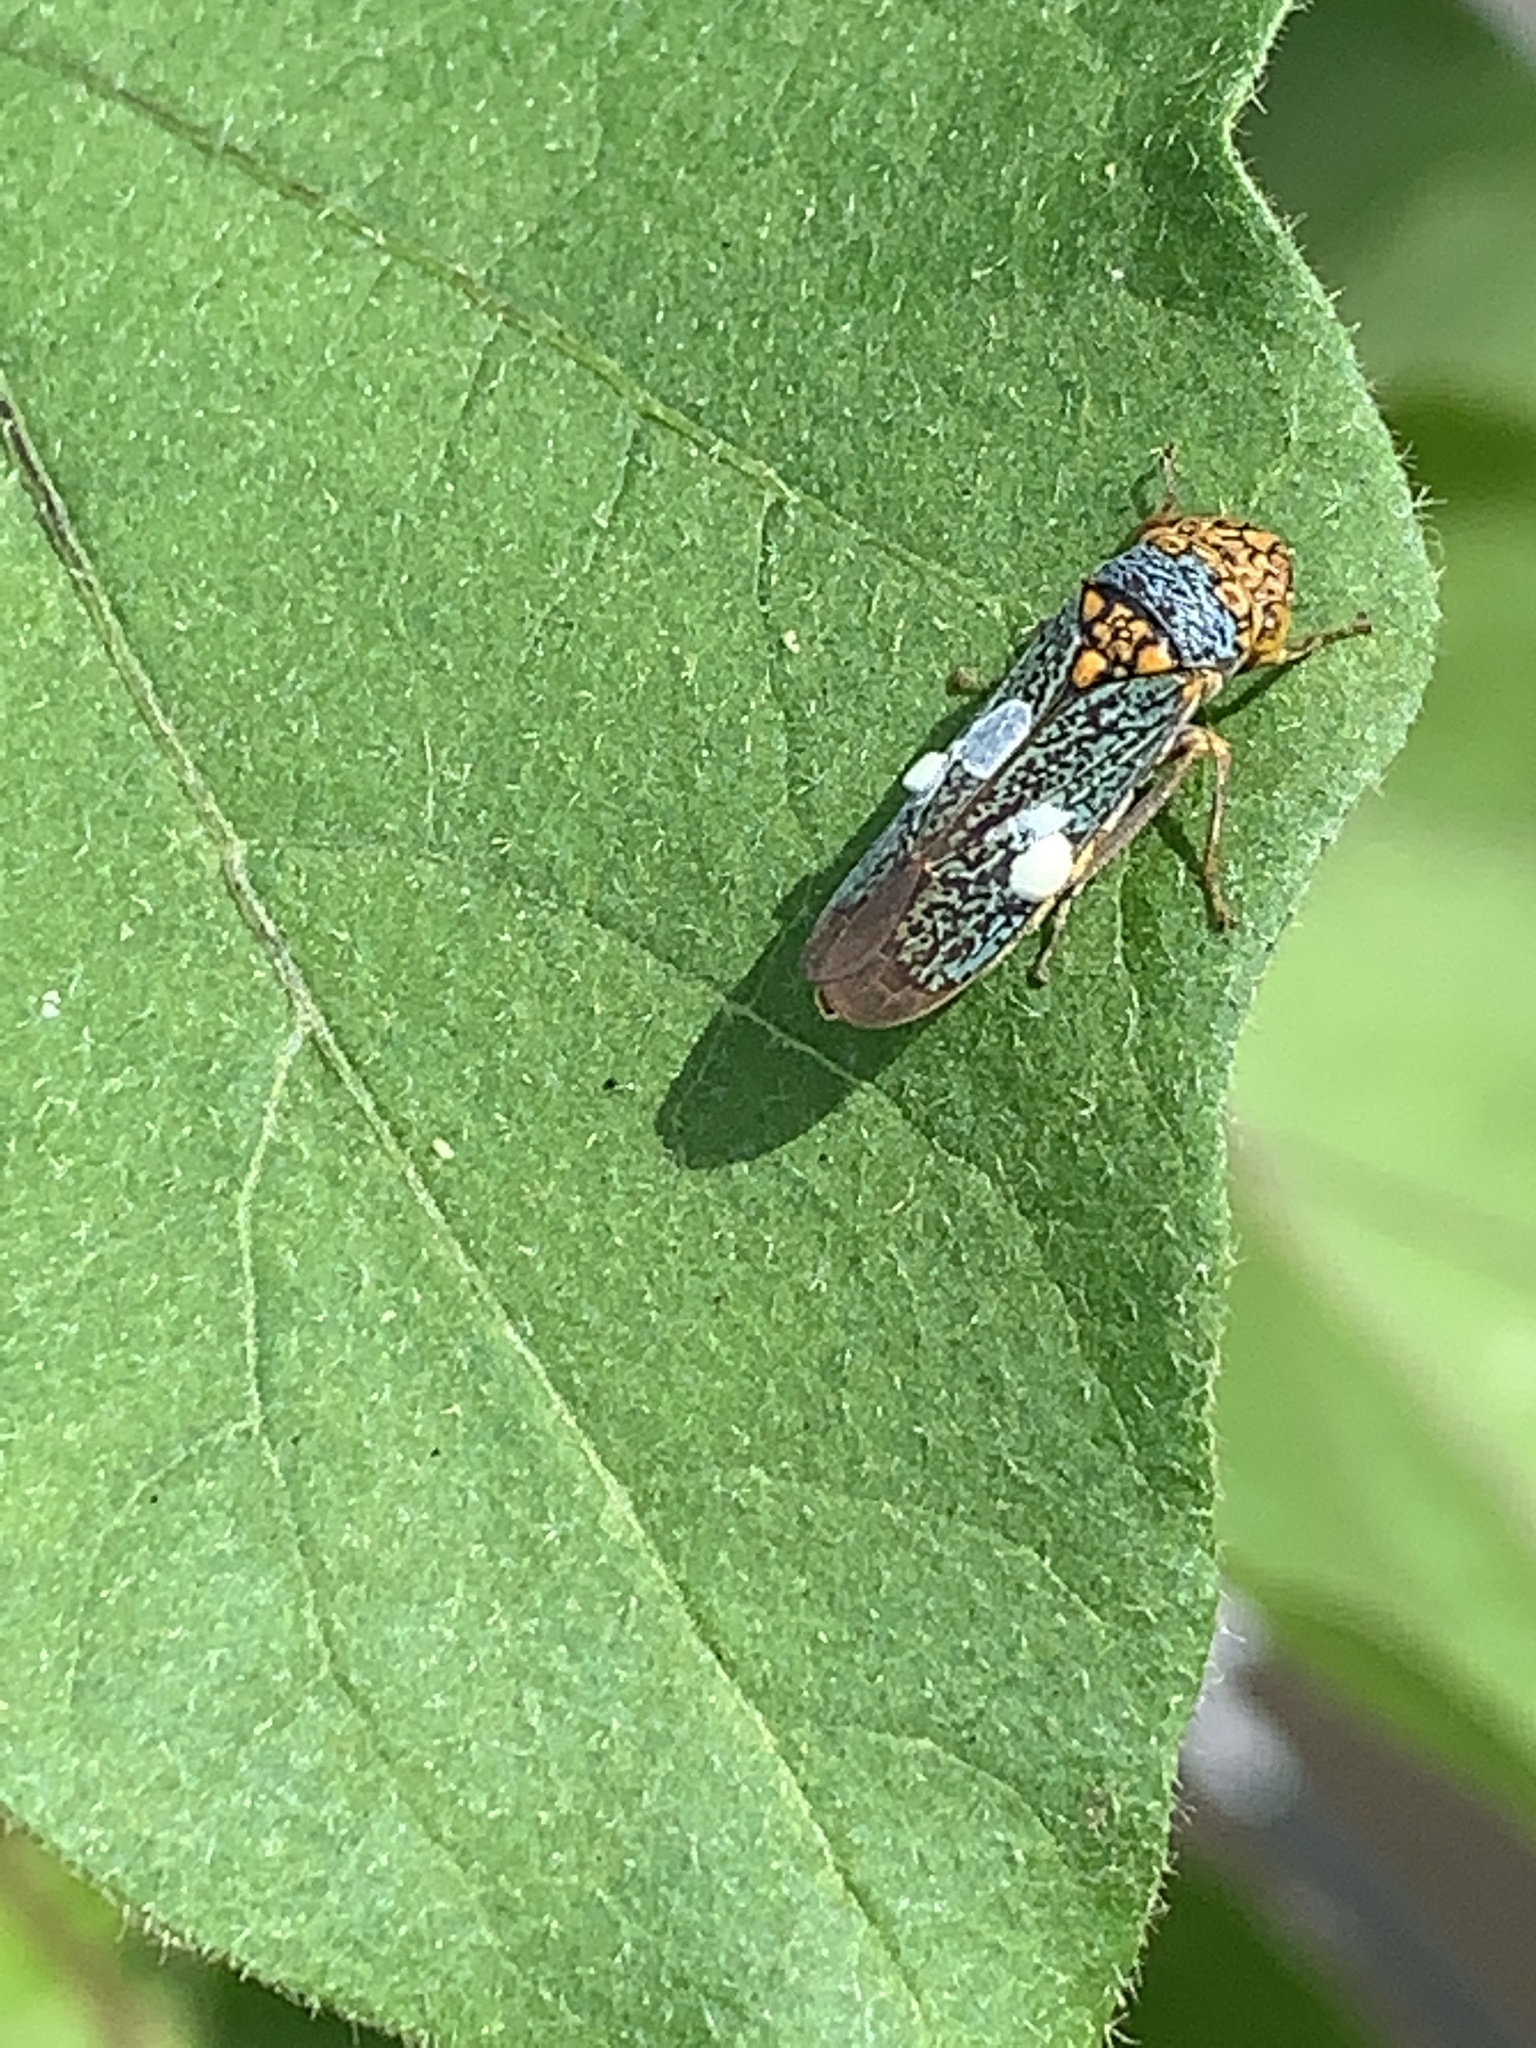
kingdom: Animalia
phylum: Arthropoda
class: Insecta
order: Hemiptera
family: Cicadellidae
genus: Oncometopia
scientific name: Oncometopia orbona
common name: Broad-headed sharpshooter
